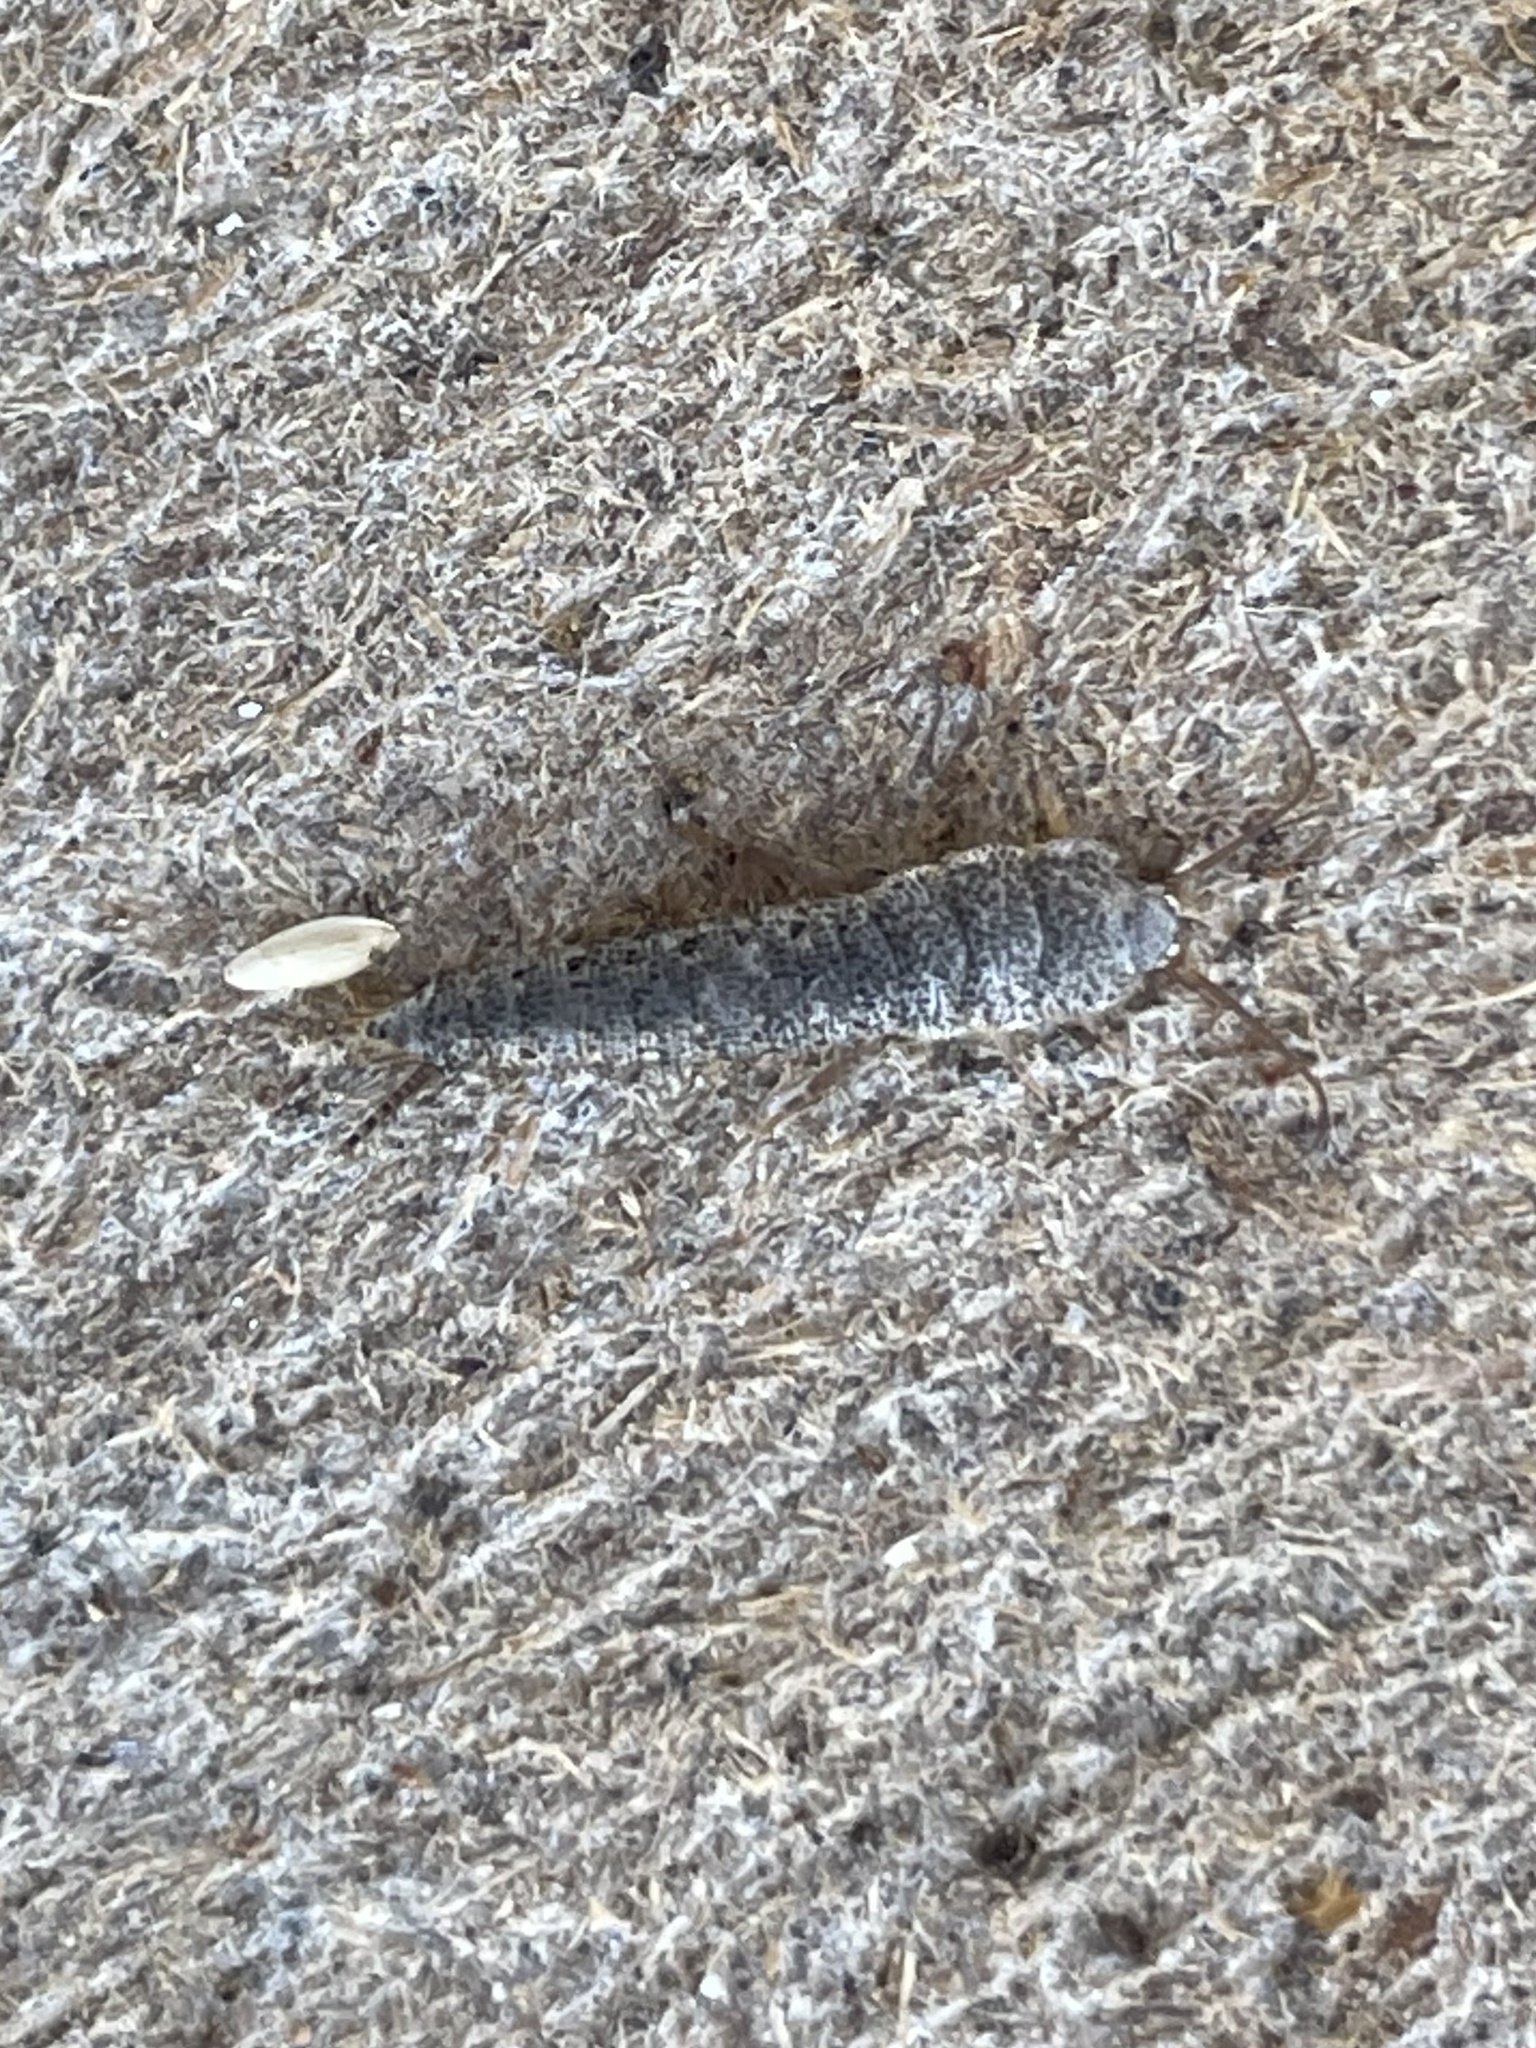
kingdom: Animalia
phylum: Arthropoda
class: Insecta
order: Zygentoma
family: Lepismatidae
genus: Allacrotelsa
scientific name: Allacrotelsa spinulata
